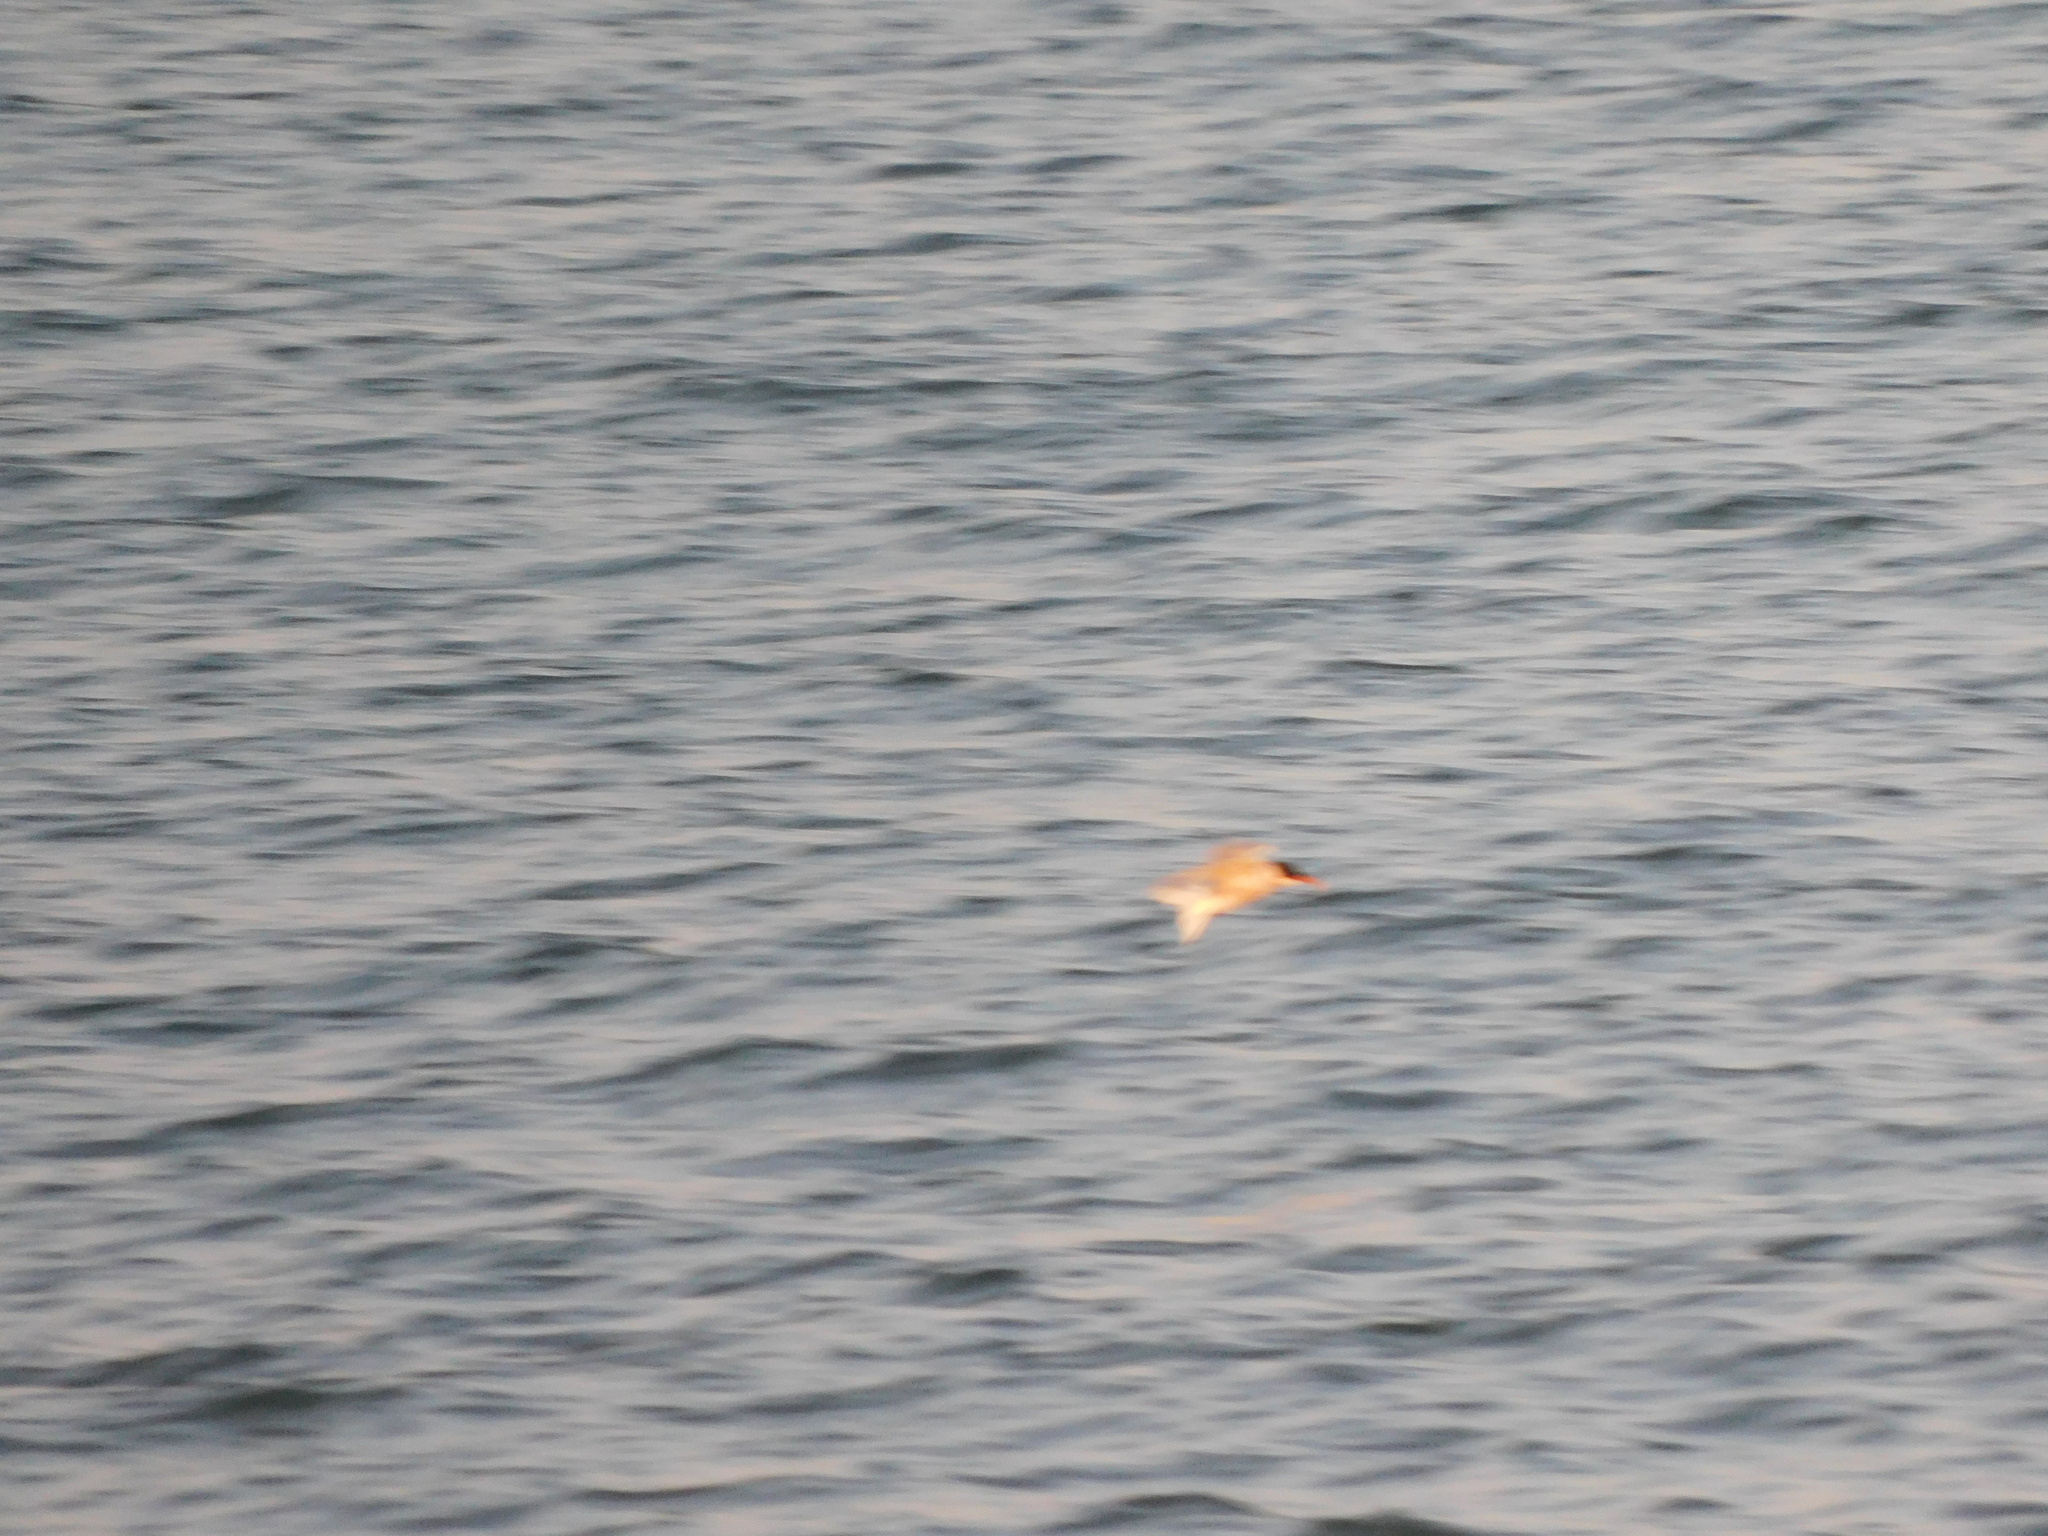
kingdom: Animalia
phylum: Chordata
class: Aves
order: Charadriiformes
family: Laridae
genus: Rynchops
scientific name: Rynchops niger
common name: Black skimmer
